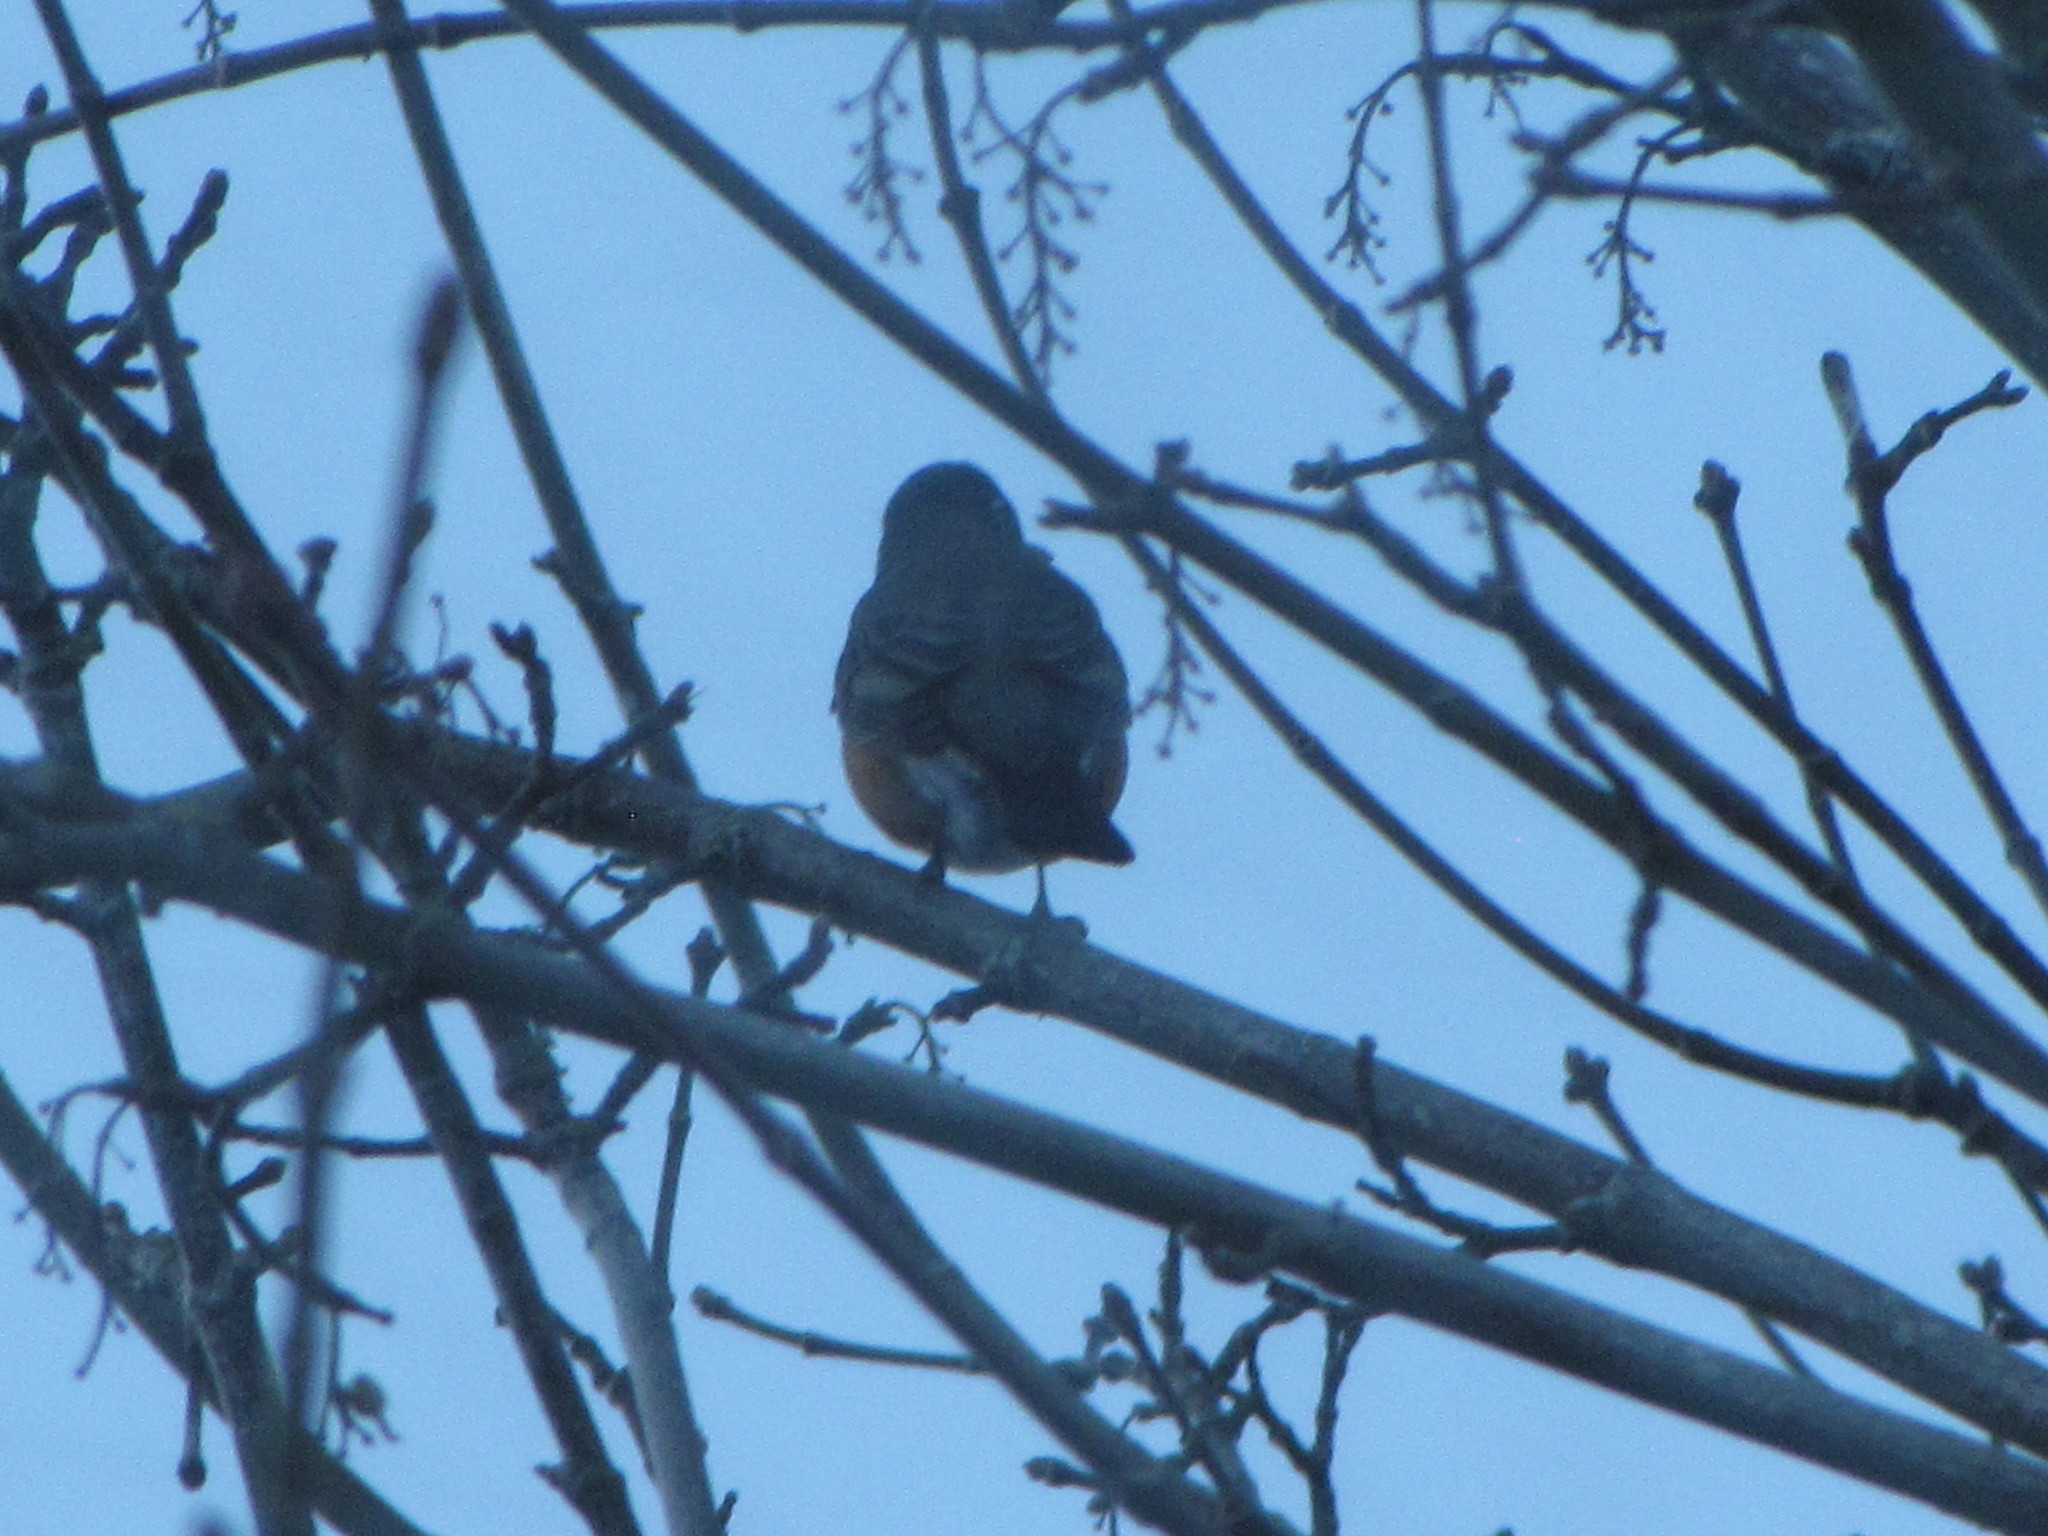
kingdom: Animalia
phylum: Chordata
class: Aves
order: Passeriformes
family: Turdidae
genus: Turdus
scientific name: Turdus migratorius
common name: American robin
